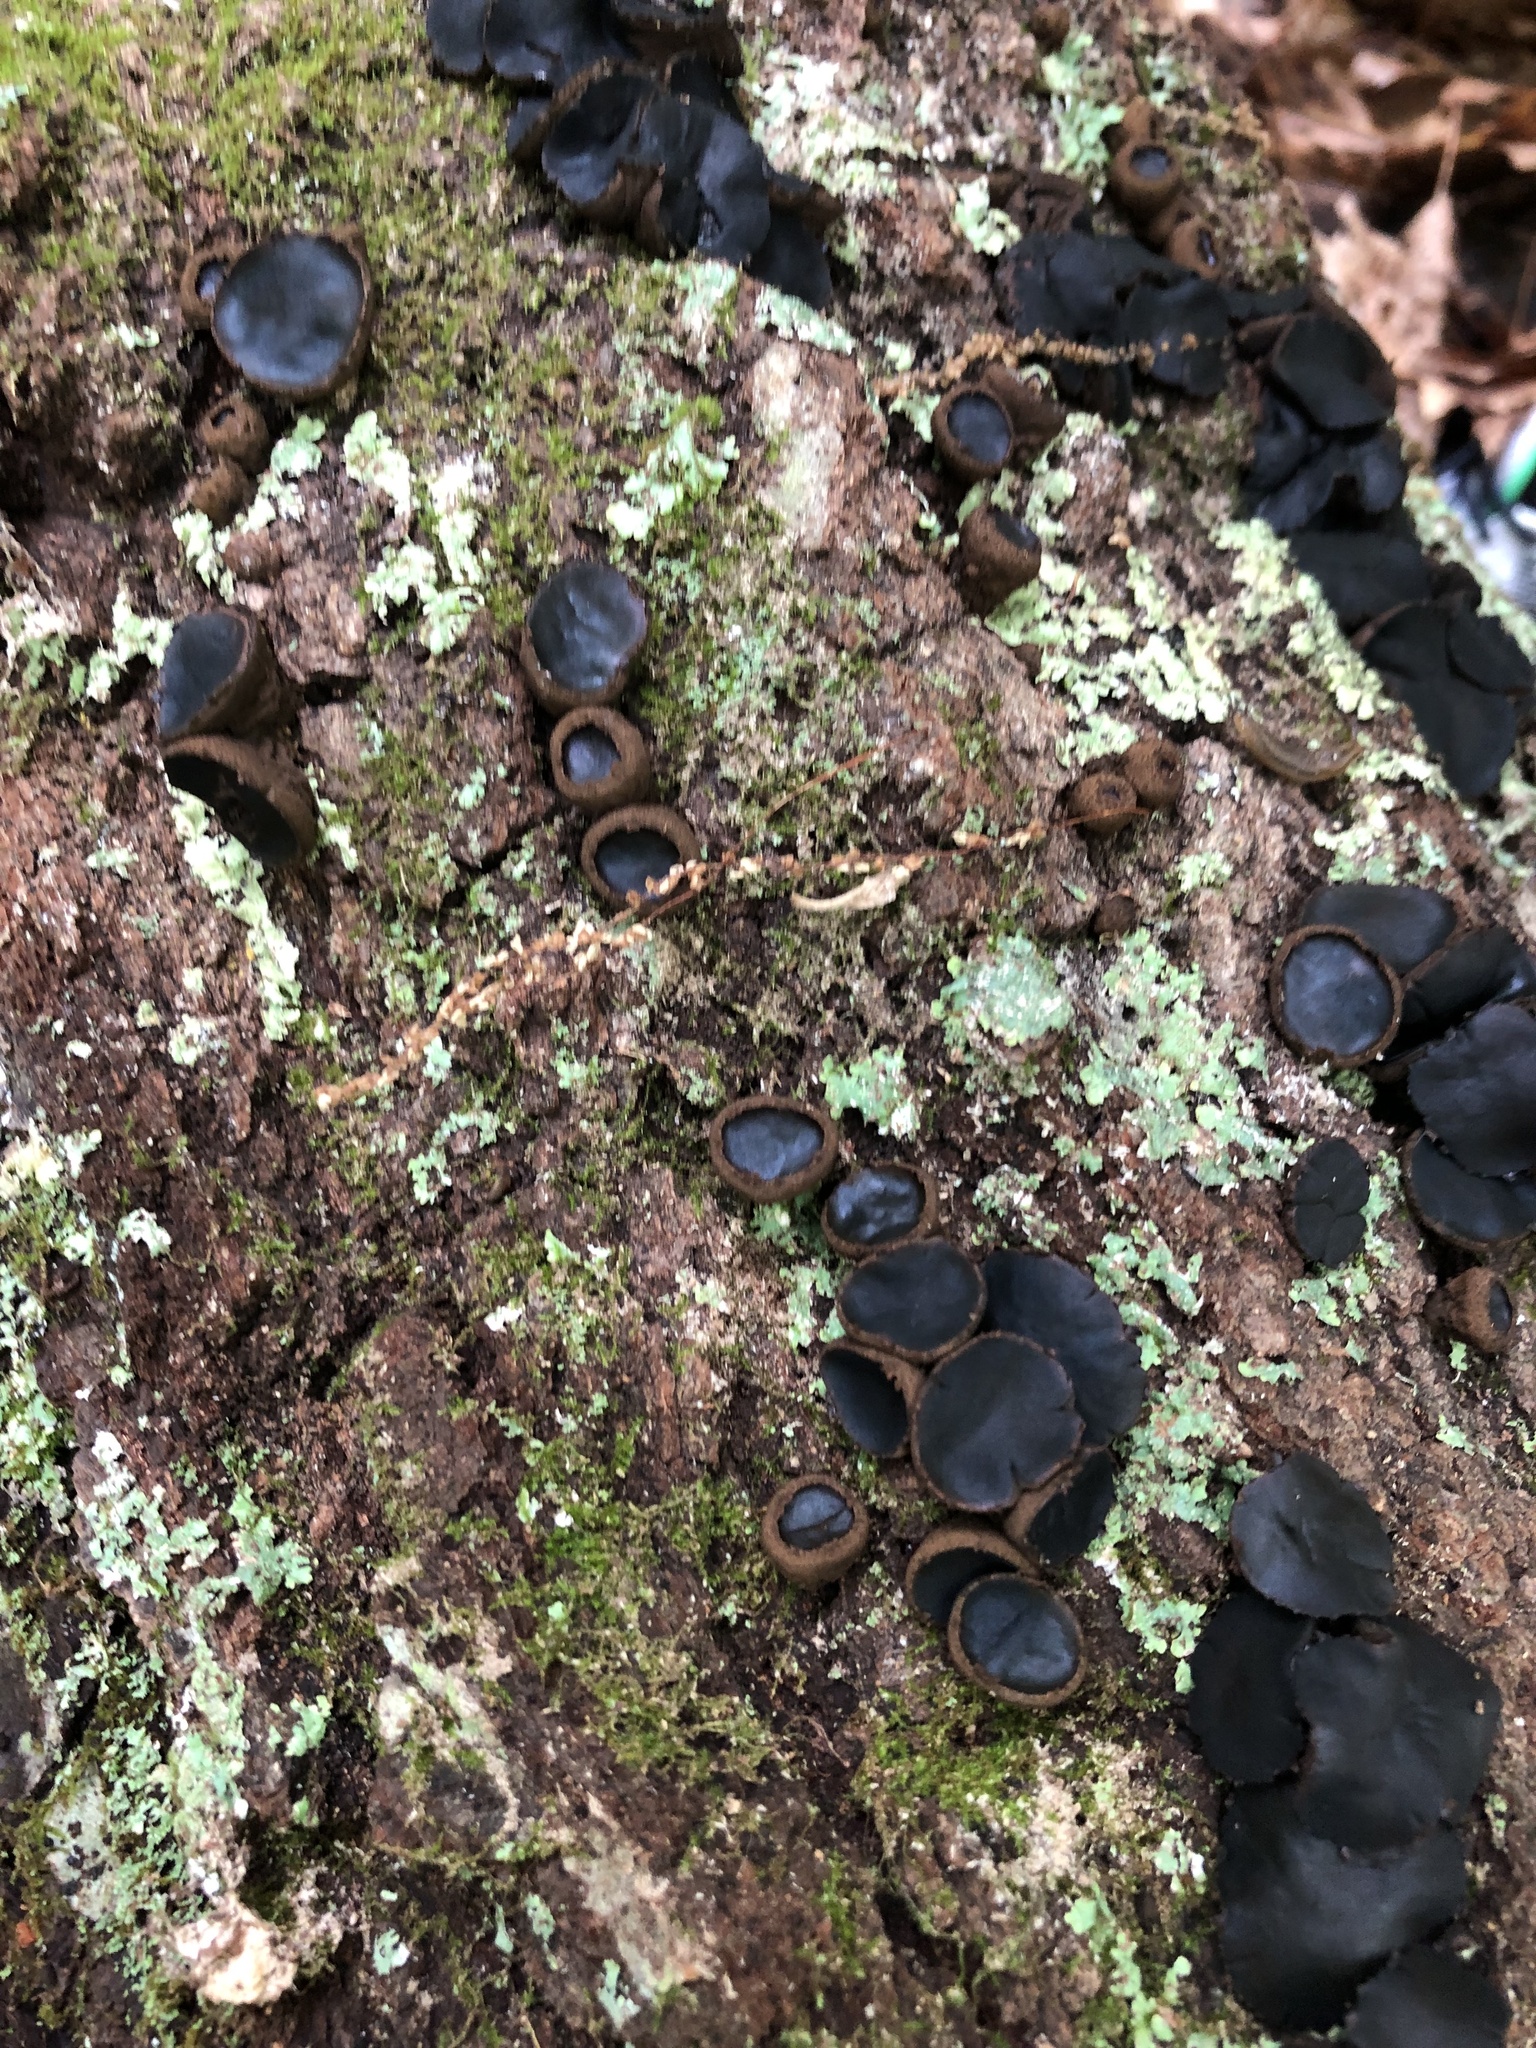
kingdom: Fungi
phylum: Ascomycota
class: Leotiomycetes
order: Phacidiales
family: Phacidiaceae
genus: Bulgaria
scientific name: Bulgaria inquinans
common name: Black bulgar
